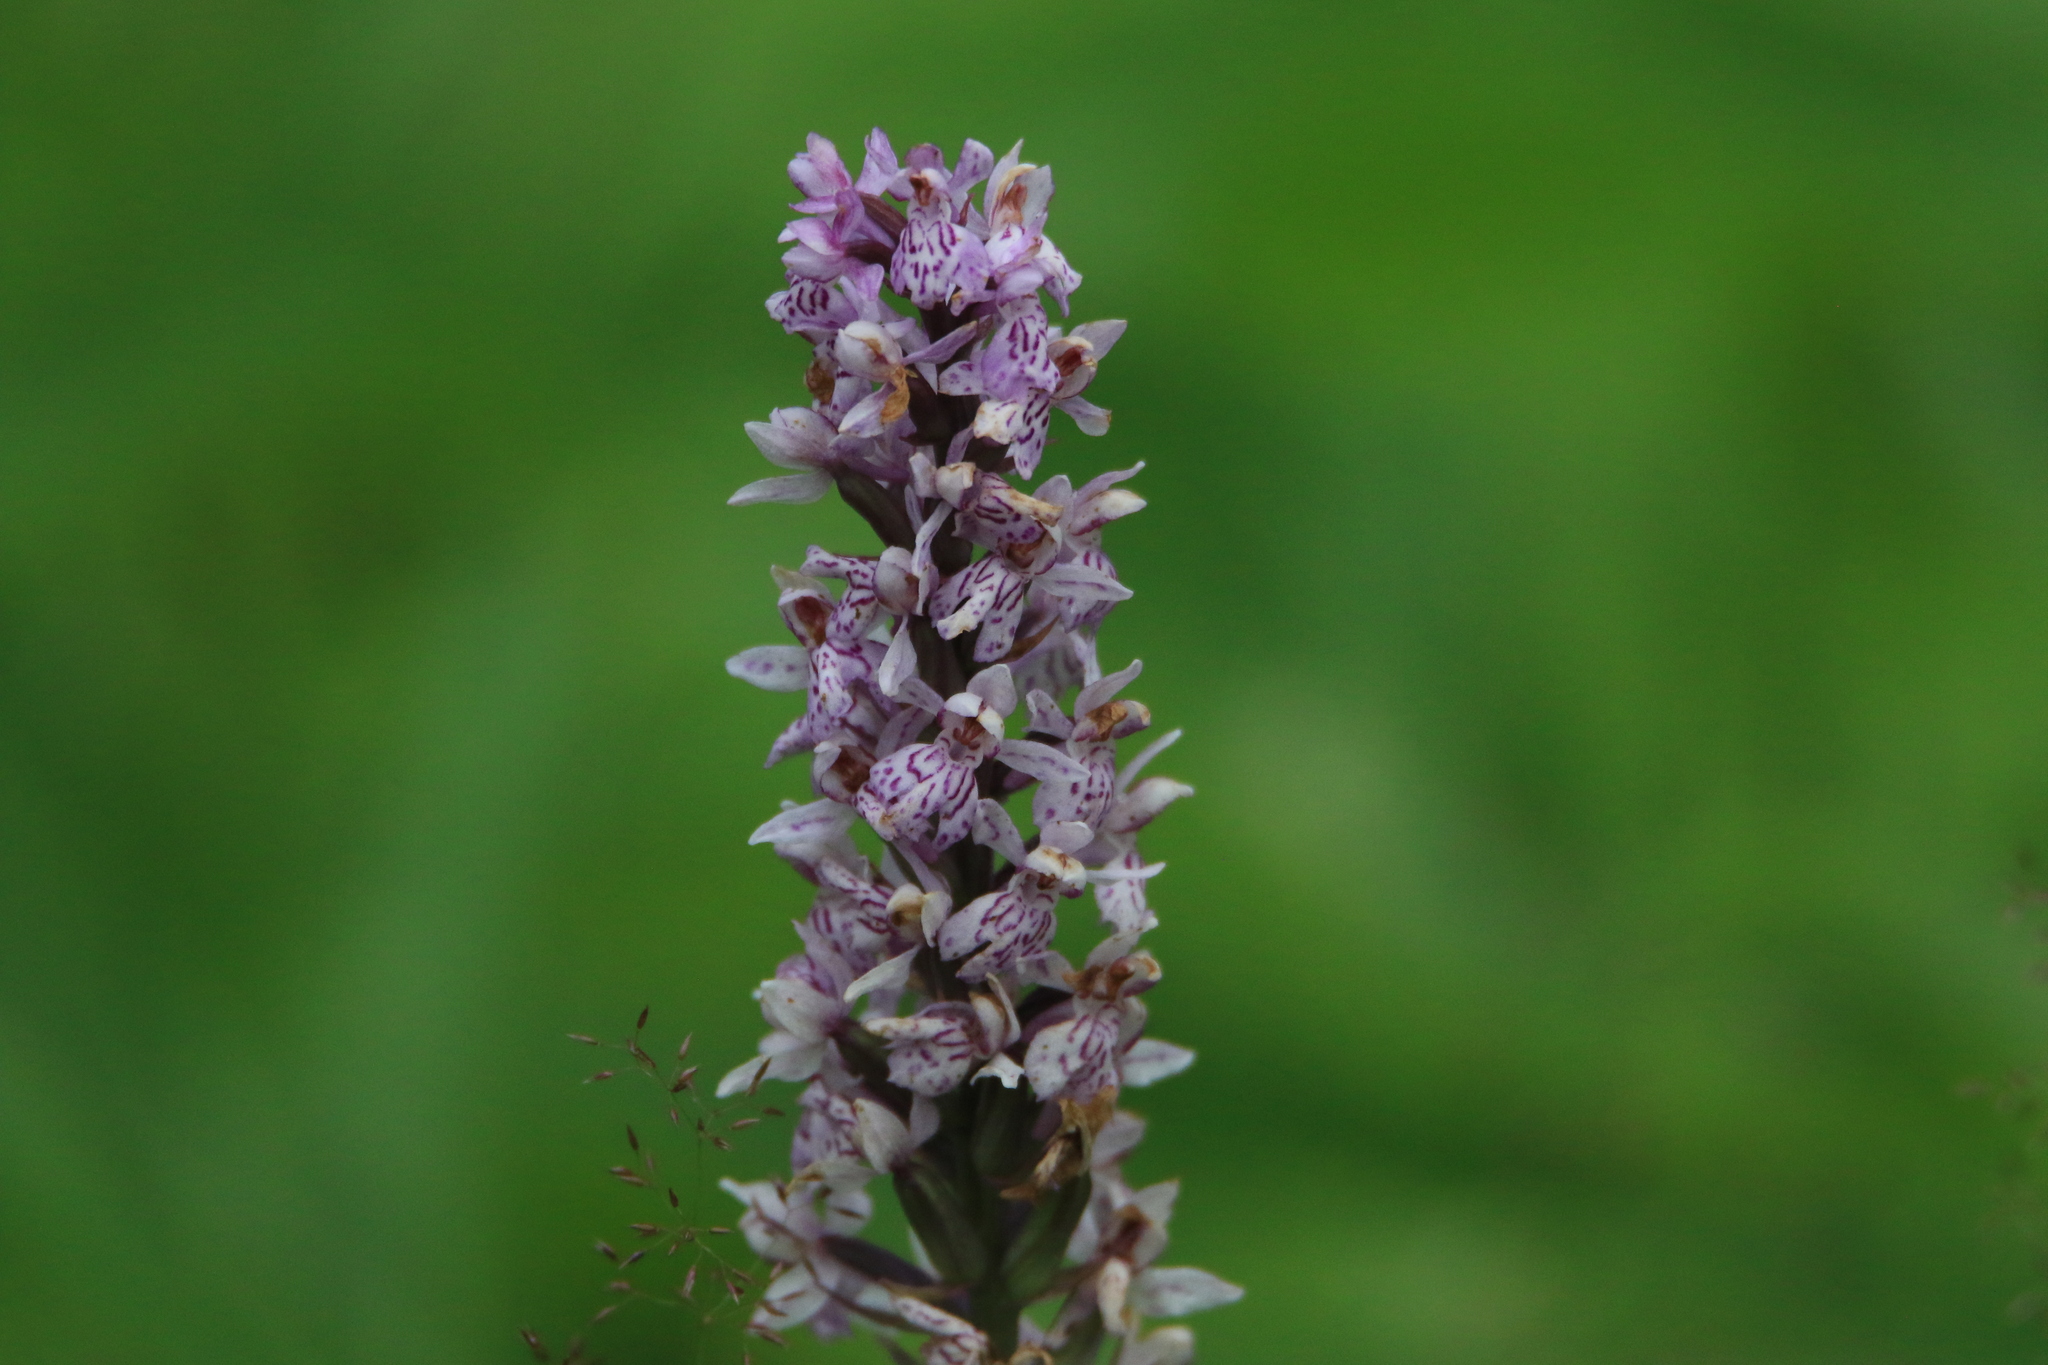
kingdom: Plantae
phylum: Tracheophyta
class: Liliopsida
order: Asparagales
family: Orchidaceae
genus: Dactylorhiza
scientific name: Dactylorhiza maculata
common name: Heath spotted-orchid
